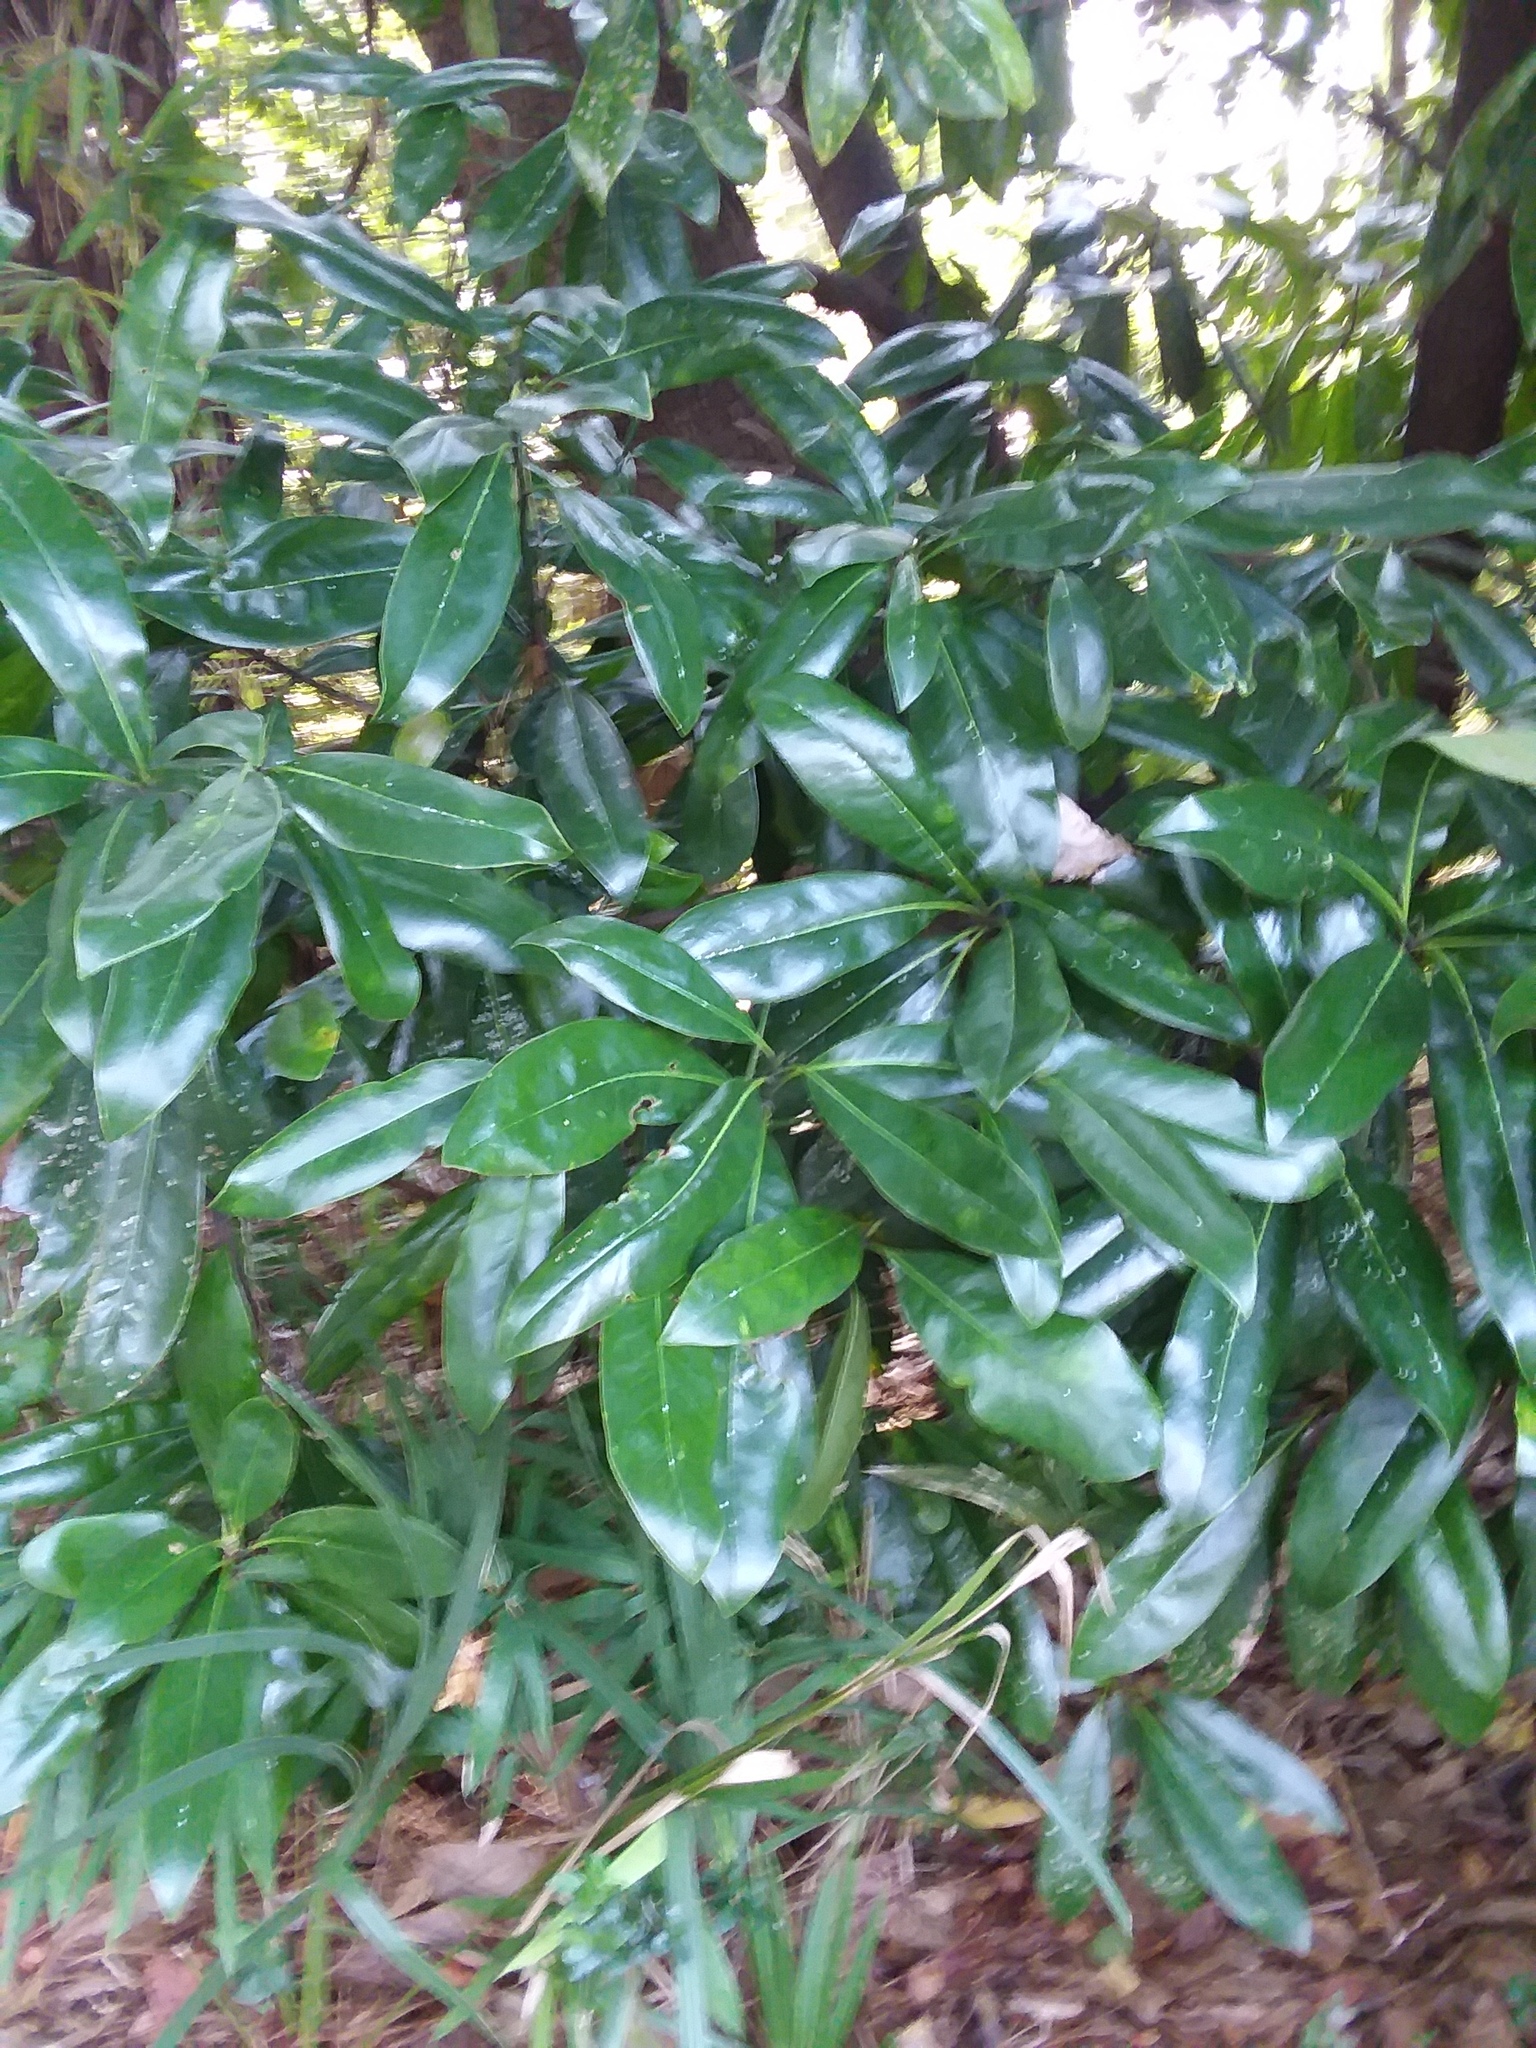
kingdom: Plantae
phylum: Tracheophyta
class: Magnoliopsida
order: Magnoliales
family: Magnoliaceae
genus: Magnolia
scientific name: Magnolia grandiflora
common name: Southern magnolia
